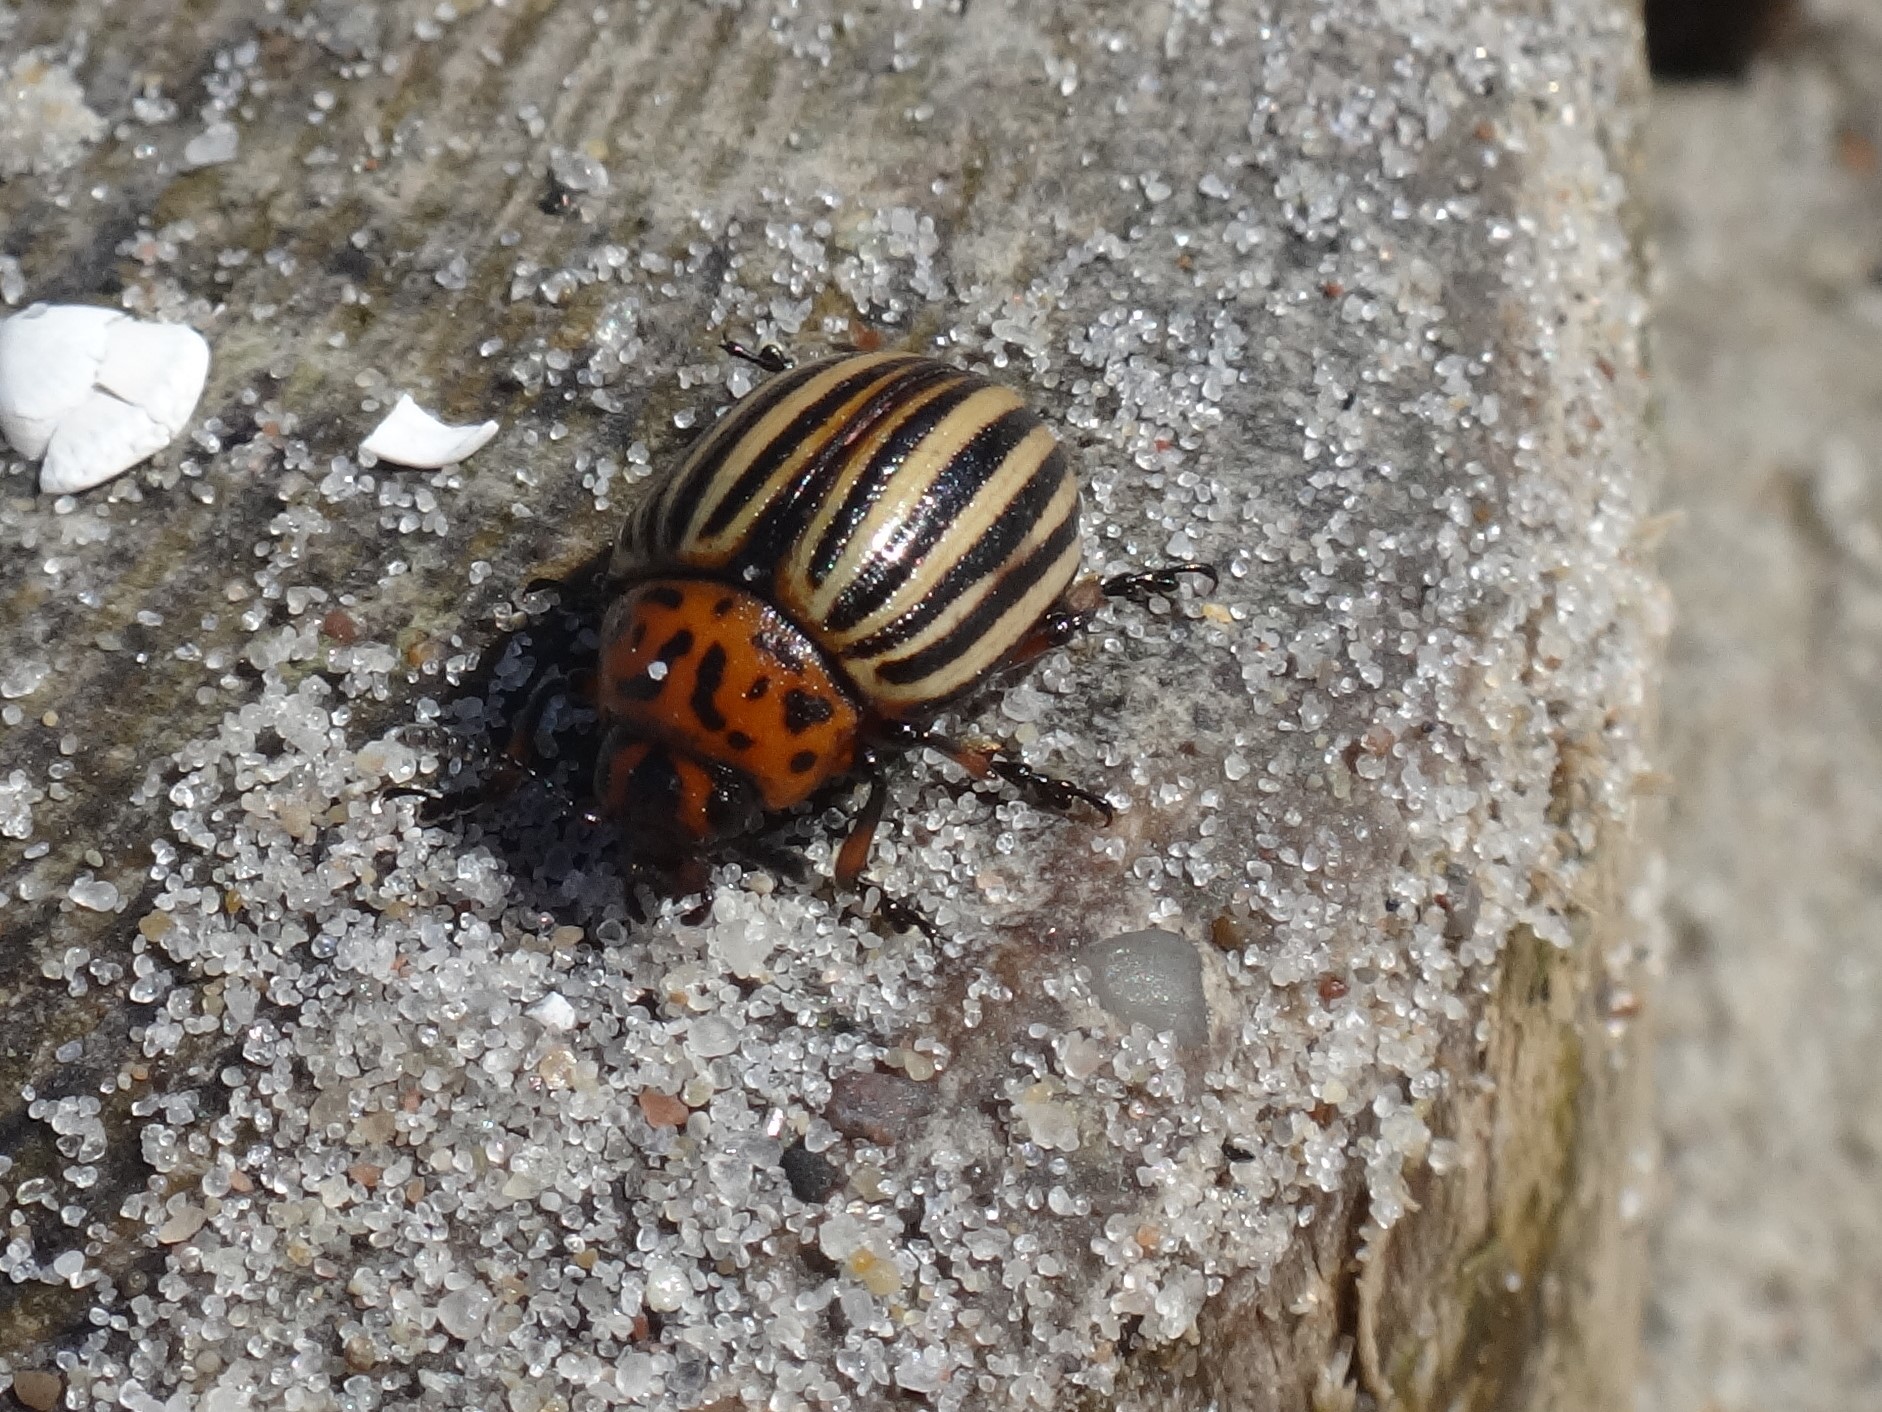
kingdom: Animalia
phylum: Arthropoda
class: Insecta
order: Coleoptera
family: Chrysomelidae
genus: Leptinotarsa
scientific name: Leptinotarsa decemlineata
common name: Colorado potato beetle
